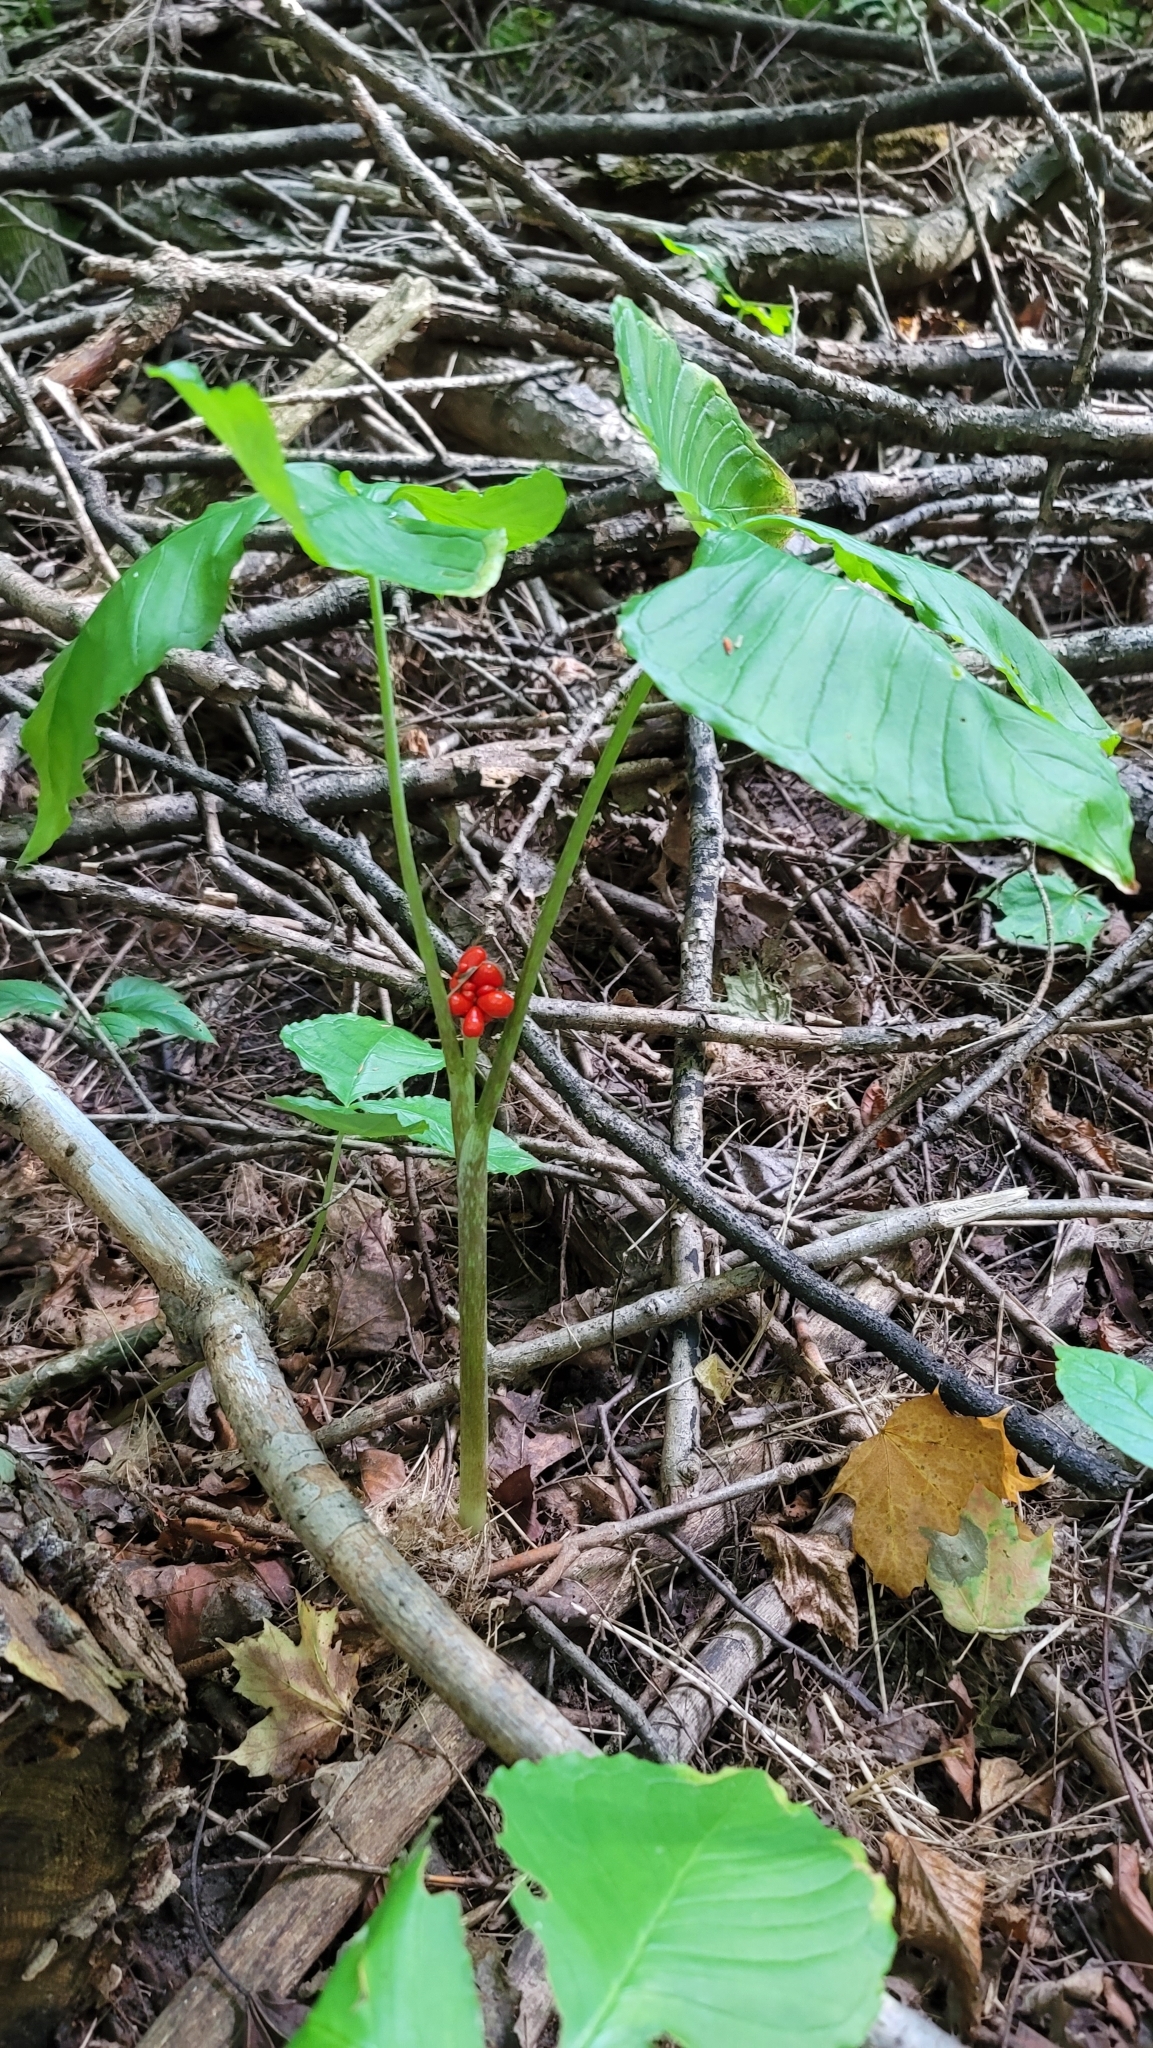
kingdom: Plantae
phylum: Tracheophyta
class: Liliopsida
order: Alismatales
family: Araceae
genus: Arisaema
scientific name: Arisaema triphyllum
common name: Jack-in-the-pulpit
